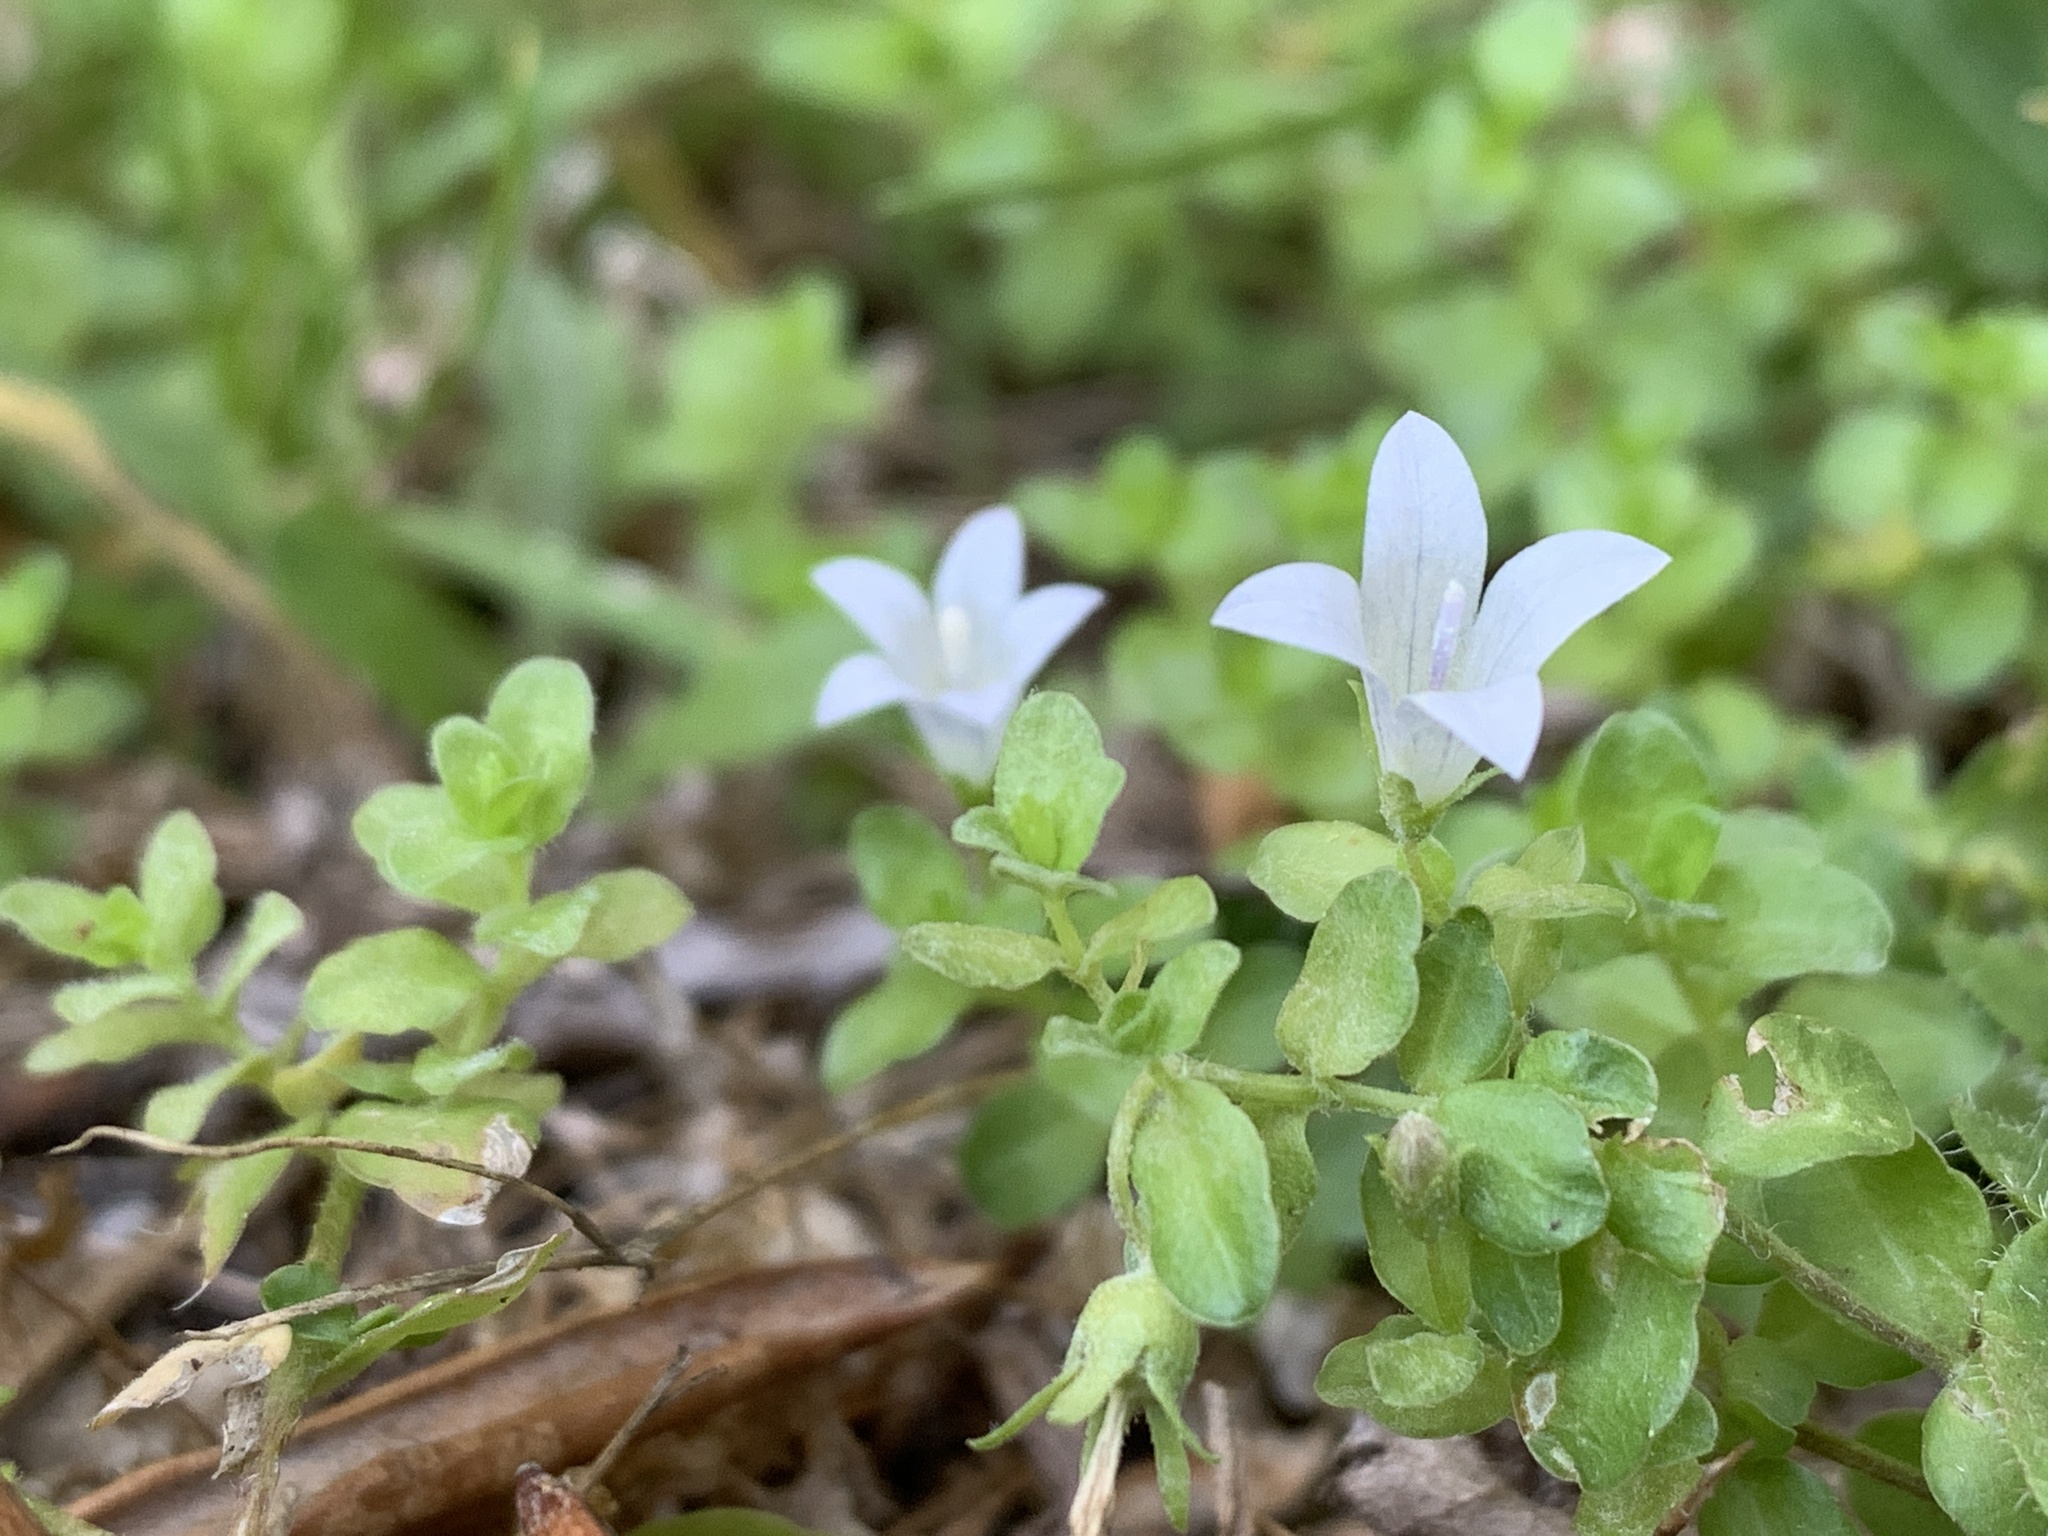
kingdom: Plantae
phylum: Tracheophyta
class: Magnoliopsida
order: Asterales
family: Campanulaceae
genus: Wahlenbergia
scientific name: Wahlenbergia procumbens
